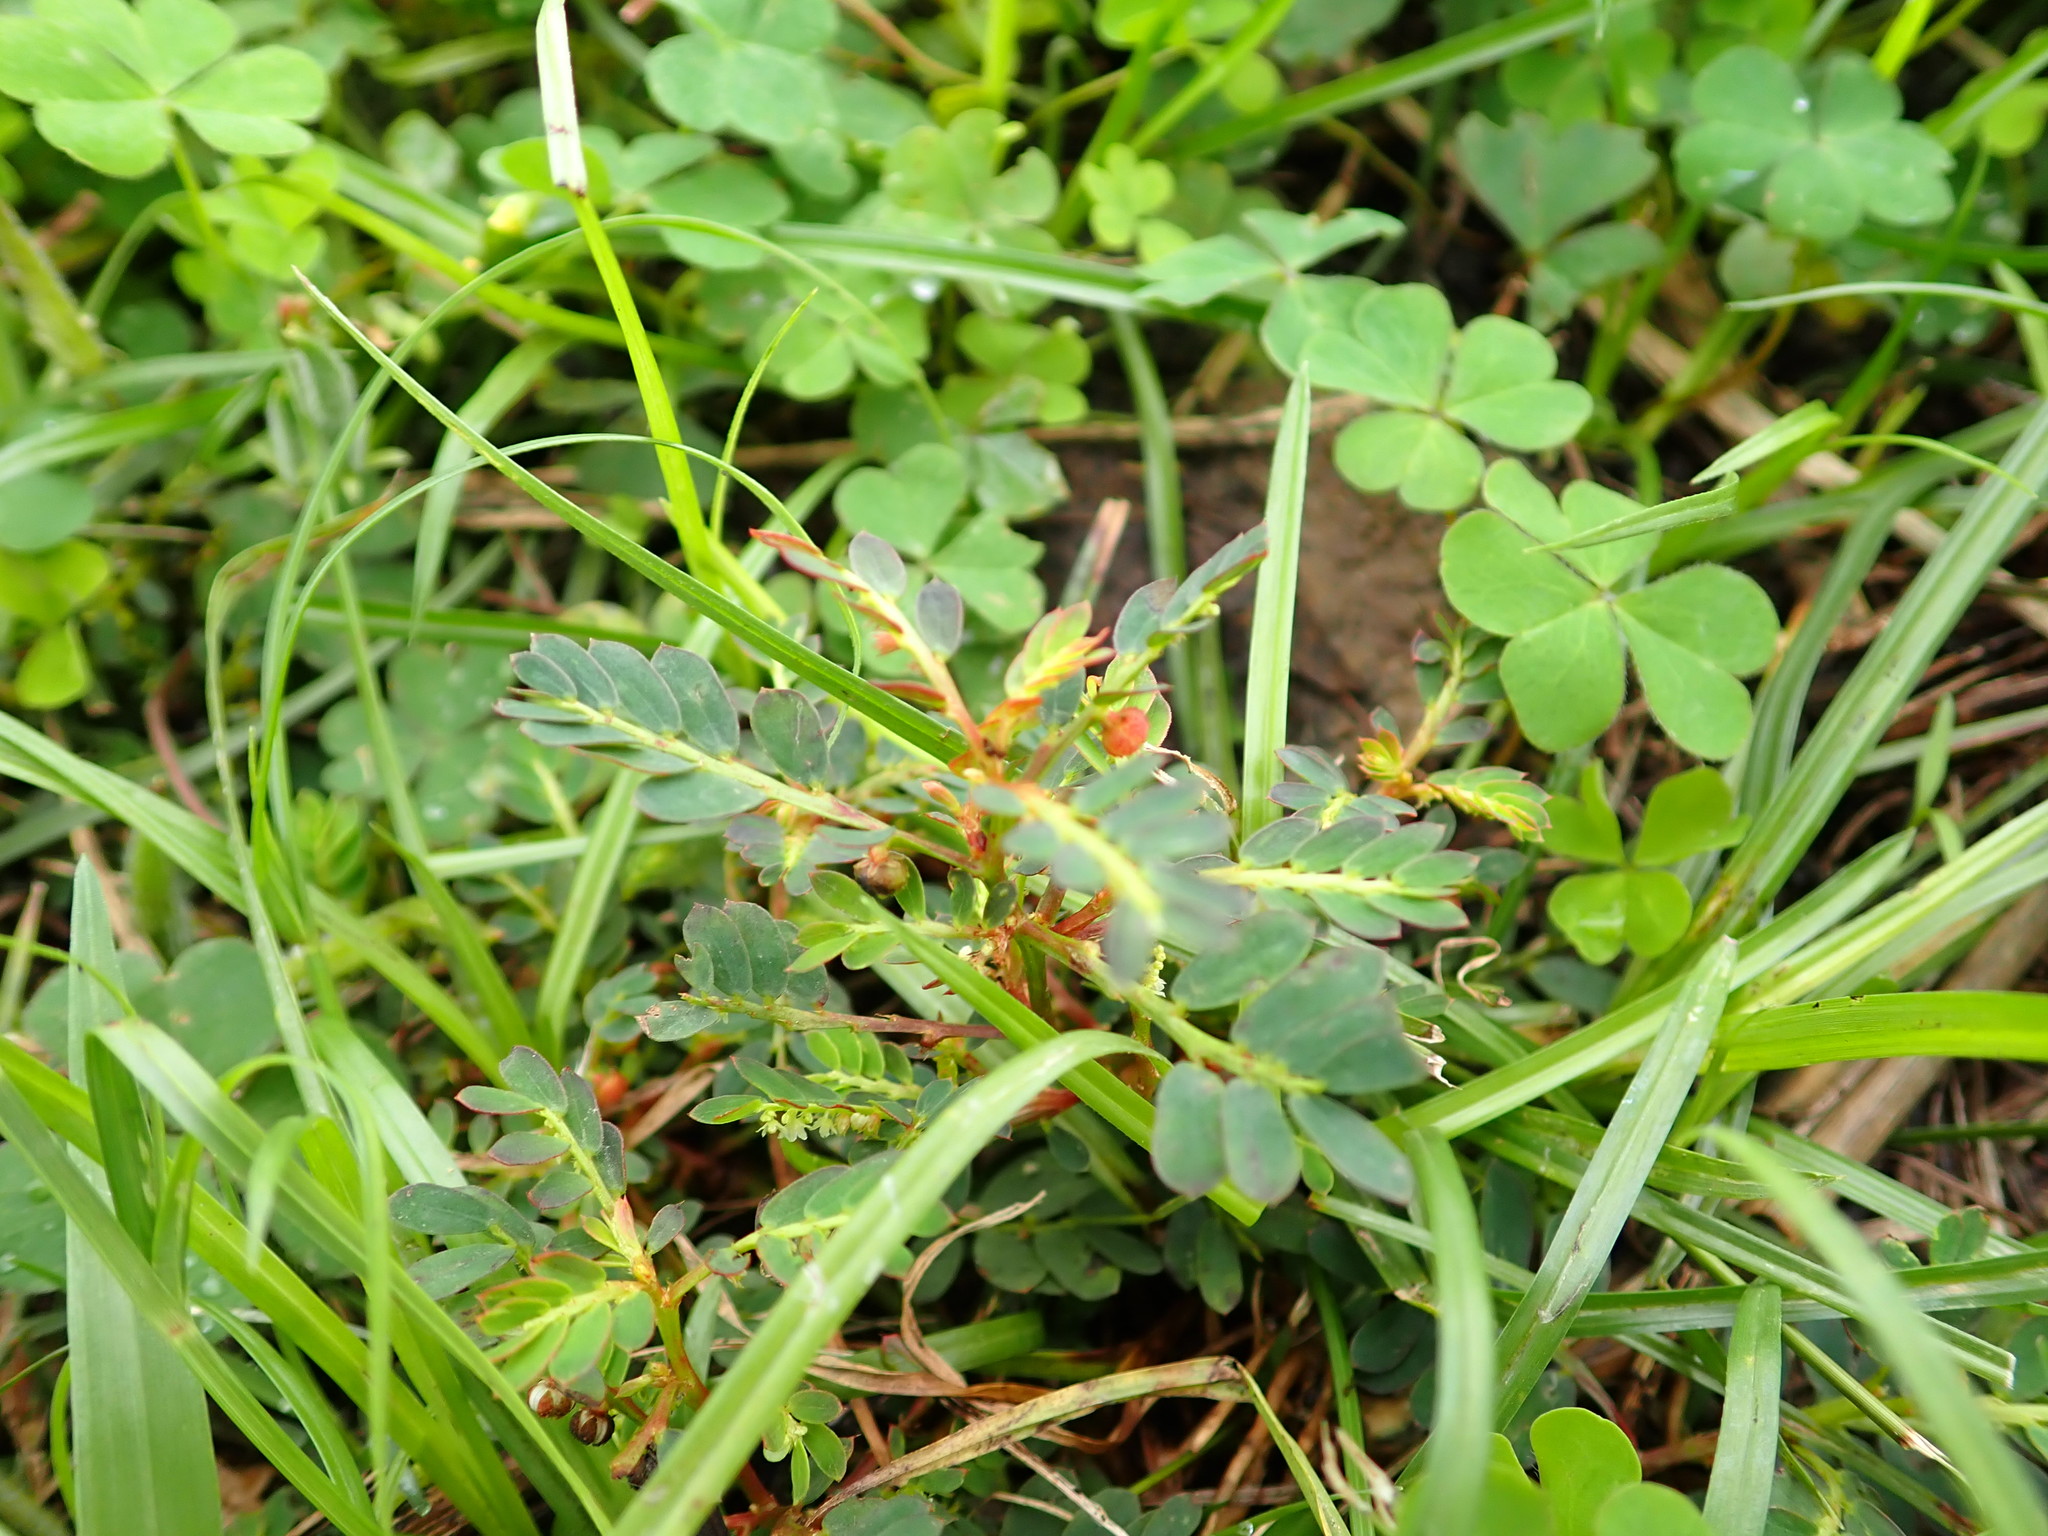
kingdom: Plantae
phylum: Tracheophyta
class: Magnoliopsida
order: Malpighiales
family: Phyllanthaceae
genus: Phyllanthus
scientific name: Phyllanthus urinaria
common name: Chamber bitter
